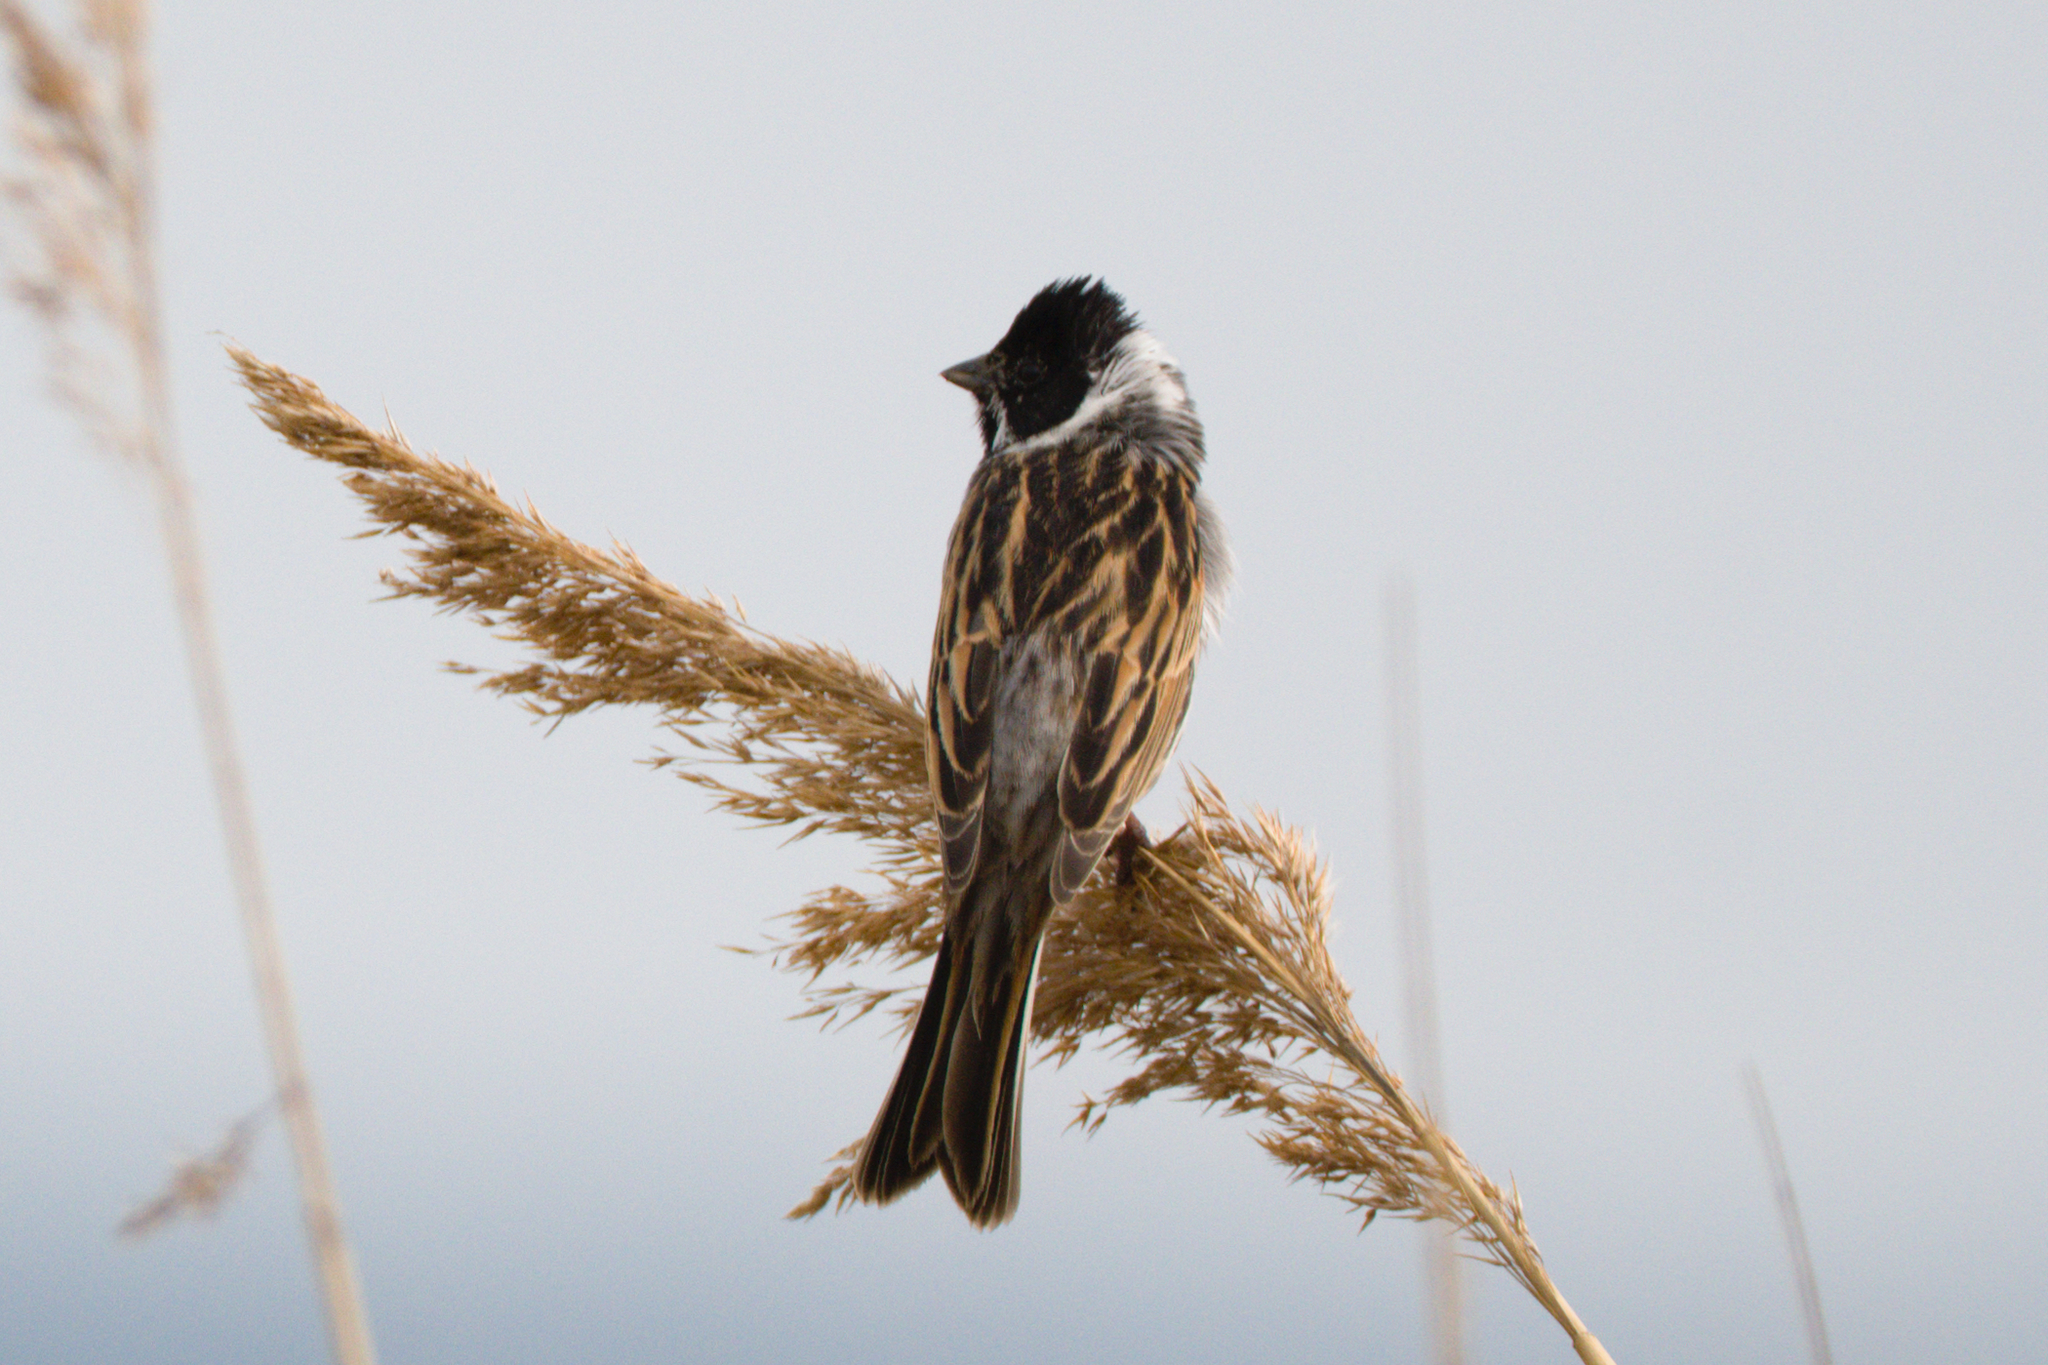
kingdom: Animalia
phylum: Chordata
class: Aves
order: Passeriformes
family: Emberizidae
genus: Emberiza
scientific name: Emberiza schoeniclus
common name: Reed bunting
